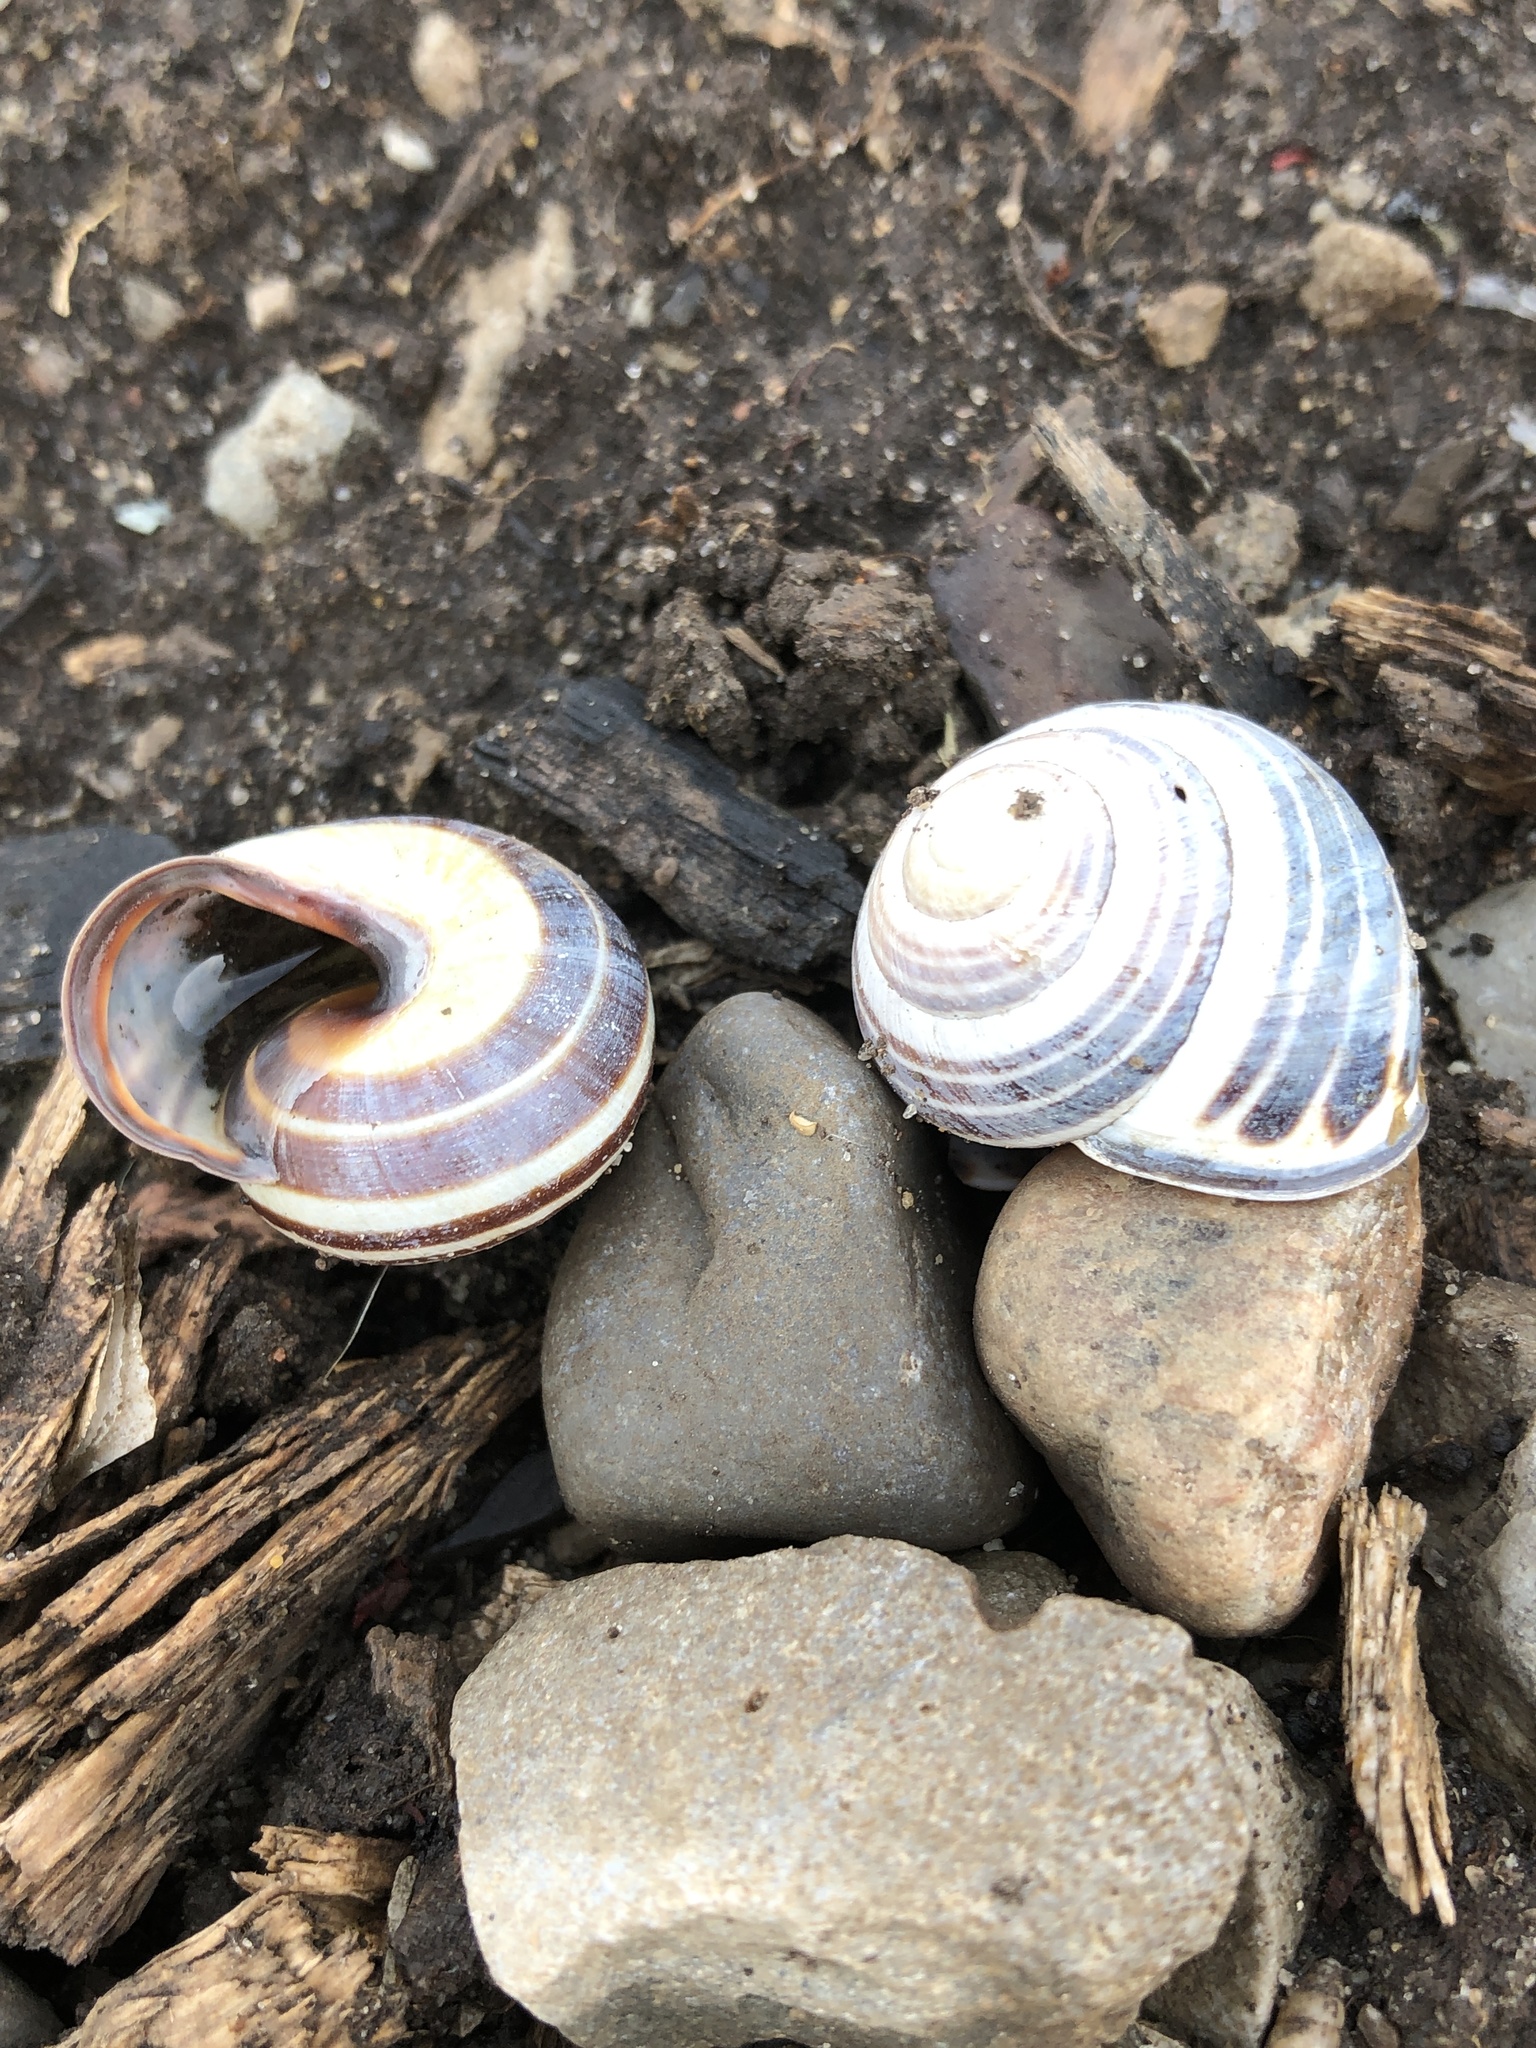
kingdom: Animalia
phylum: Mollusca
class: Gastropoda
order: Stylommatophora
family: Helicidae
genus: Cepaea
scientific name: Cepaea nemoralis
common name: Grovesnail
